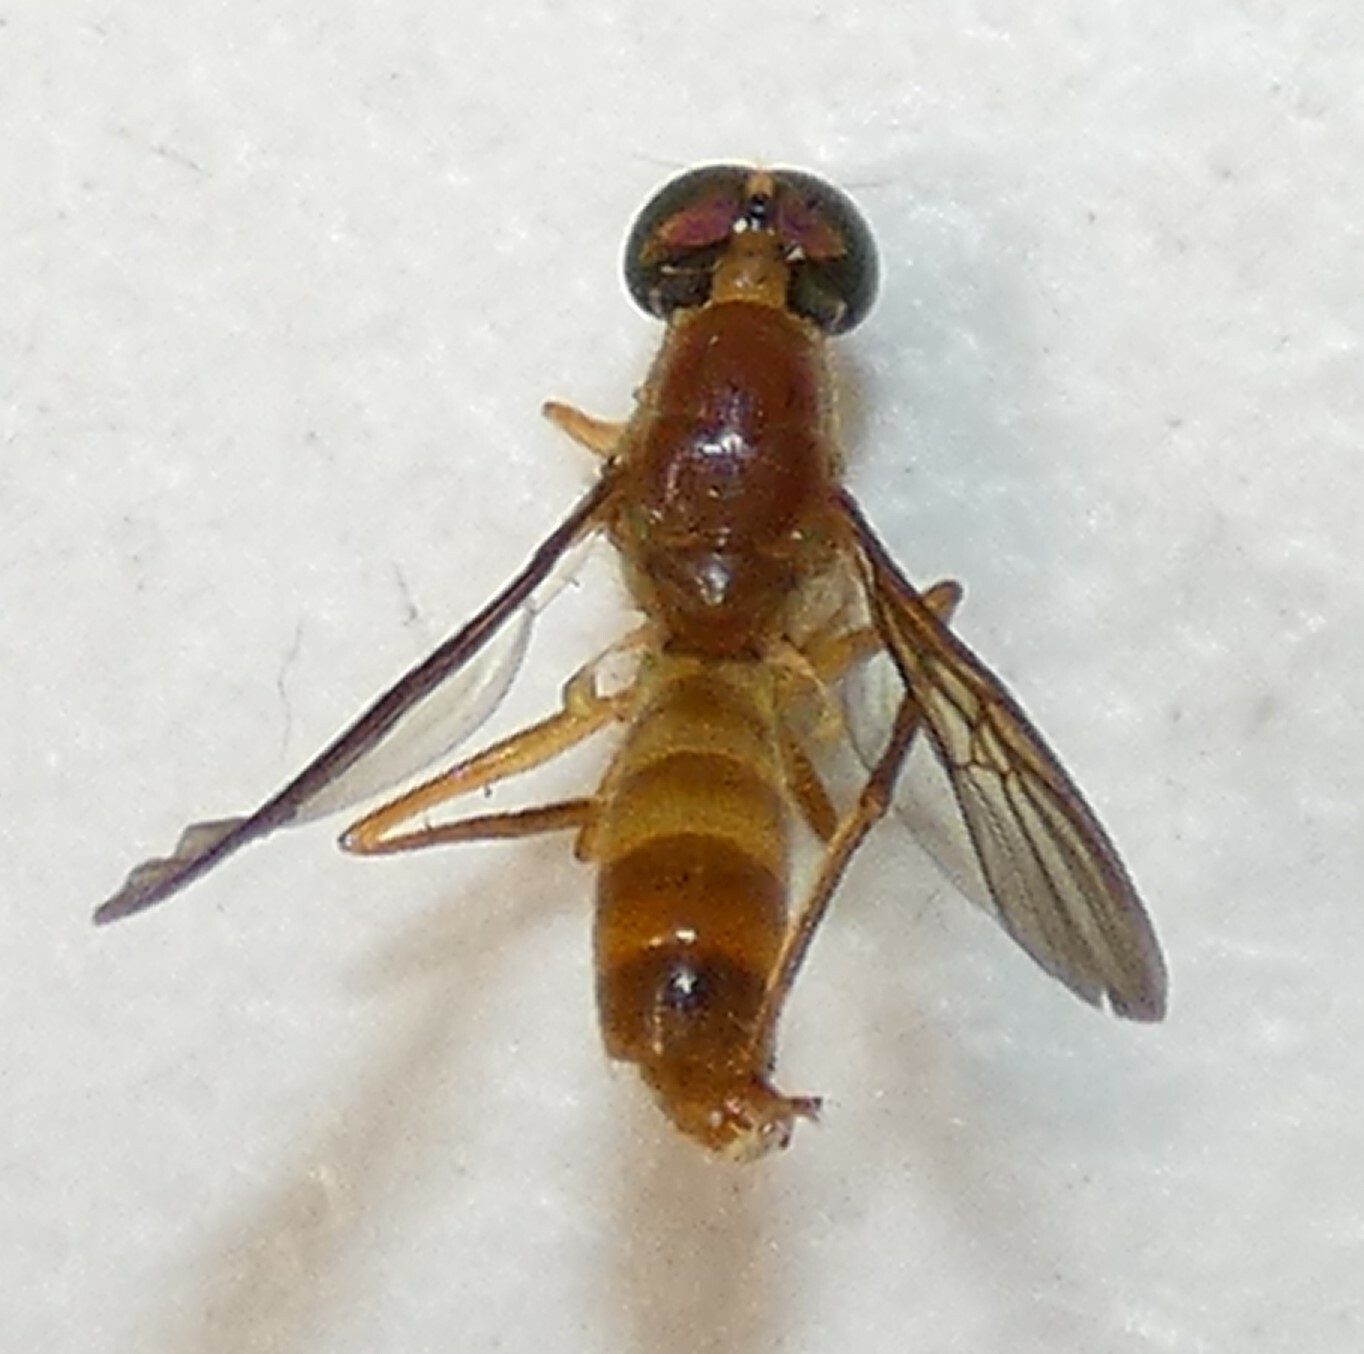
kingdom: Animalia
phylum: Arthropoda
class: Insecta
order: Diptera
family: Stratiomyidae
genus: Ptecticus
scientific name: Ptecticus trivittatus
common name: Compost fly
